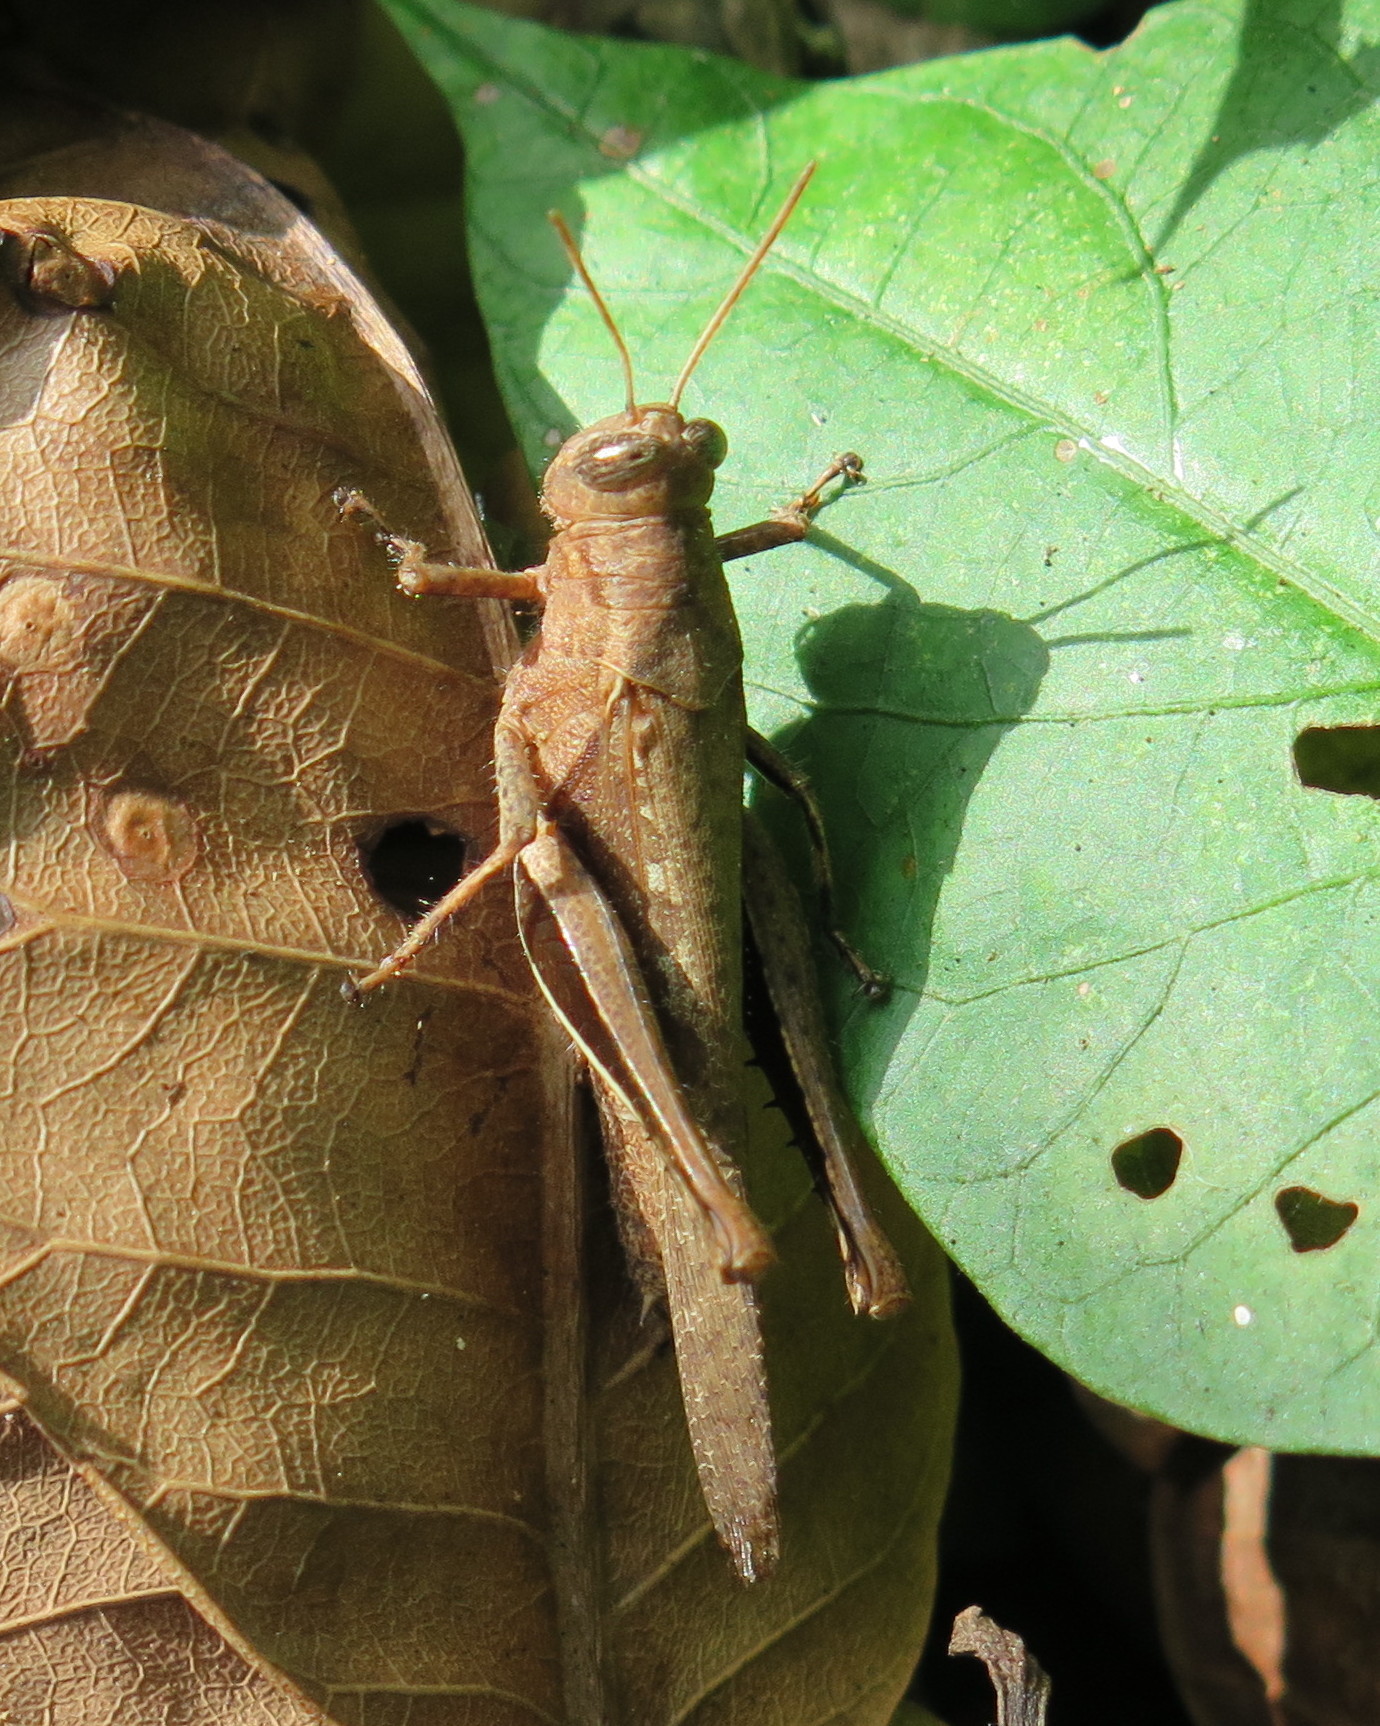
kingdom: Animalia
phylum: Arthropoda
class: Insecta
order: Orthoptera
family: Acrididae
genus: Abracris
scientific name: Abracris flavolineata
